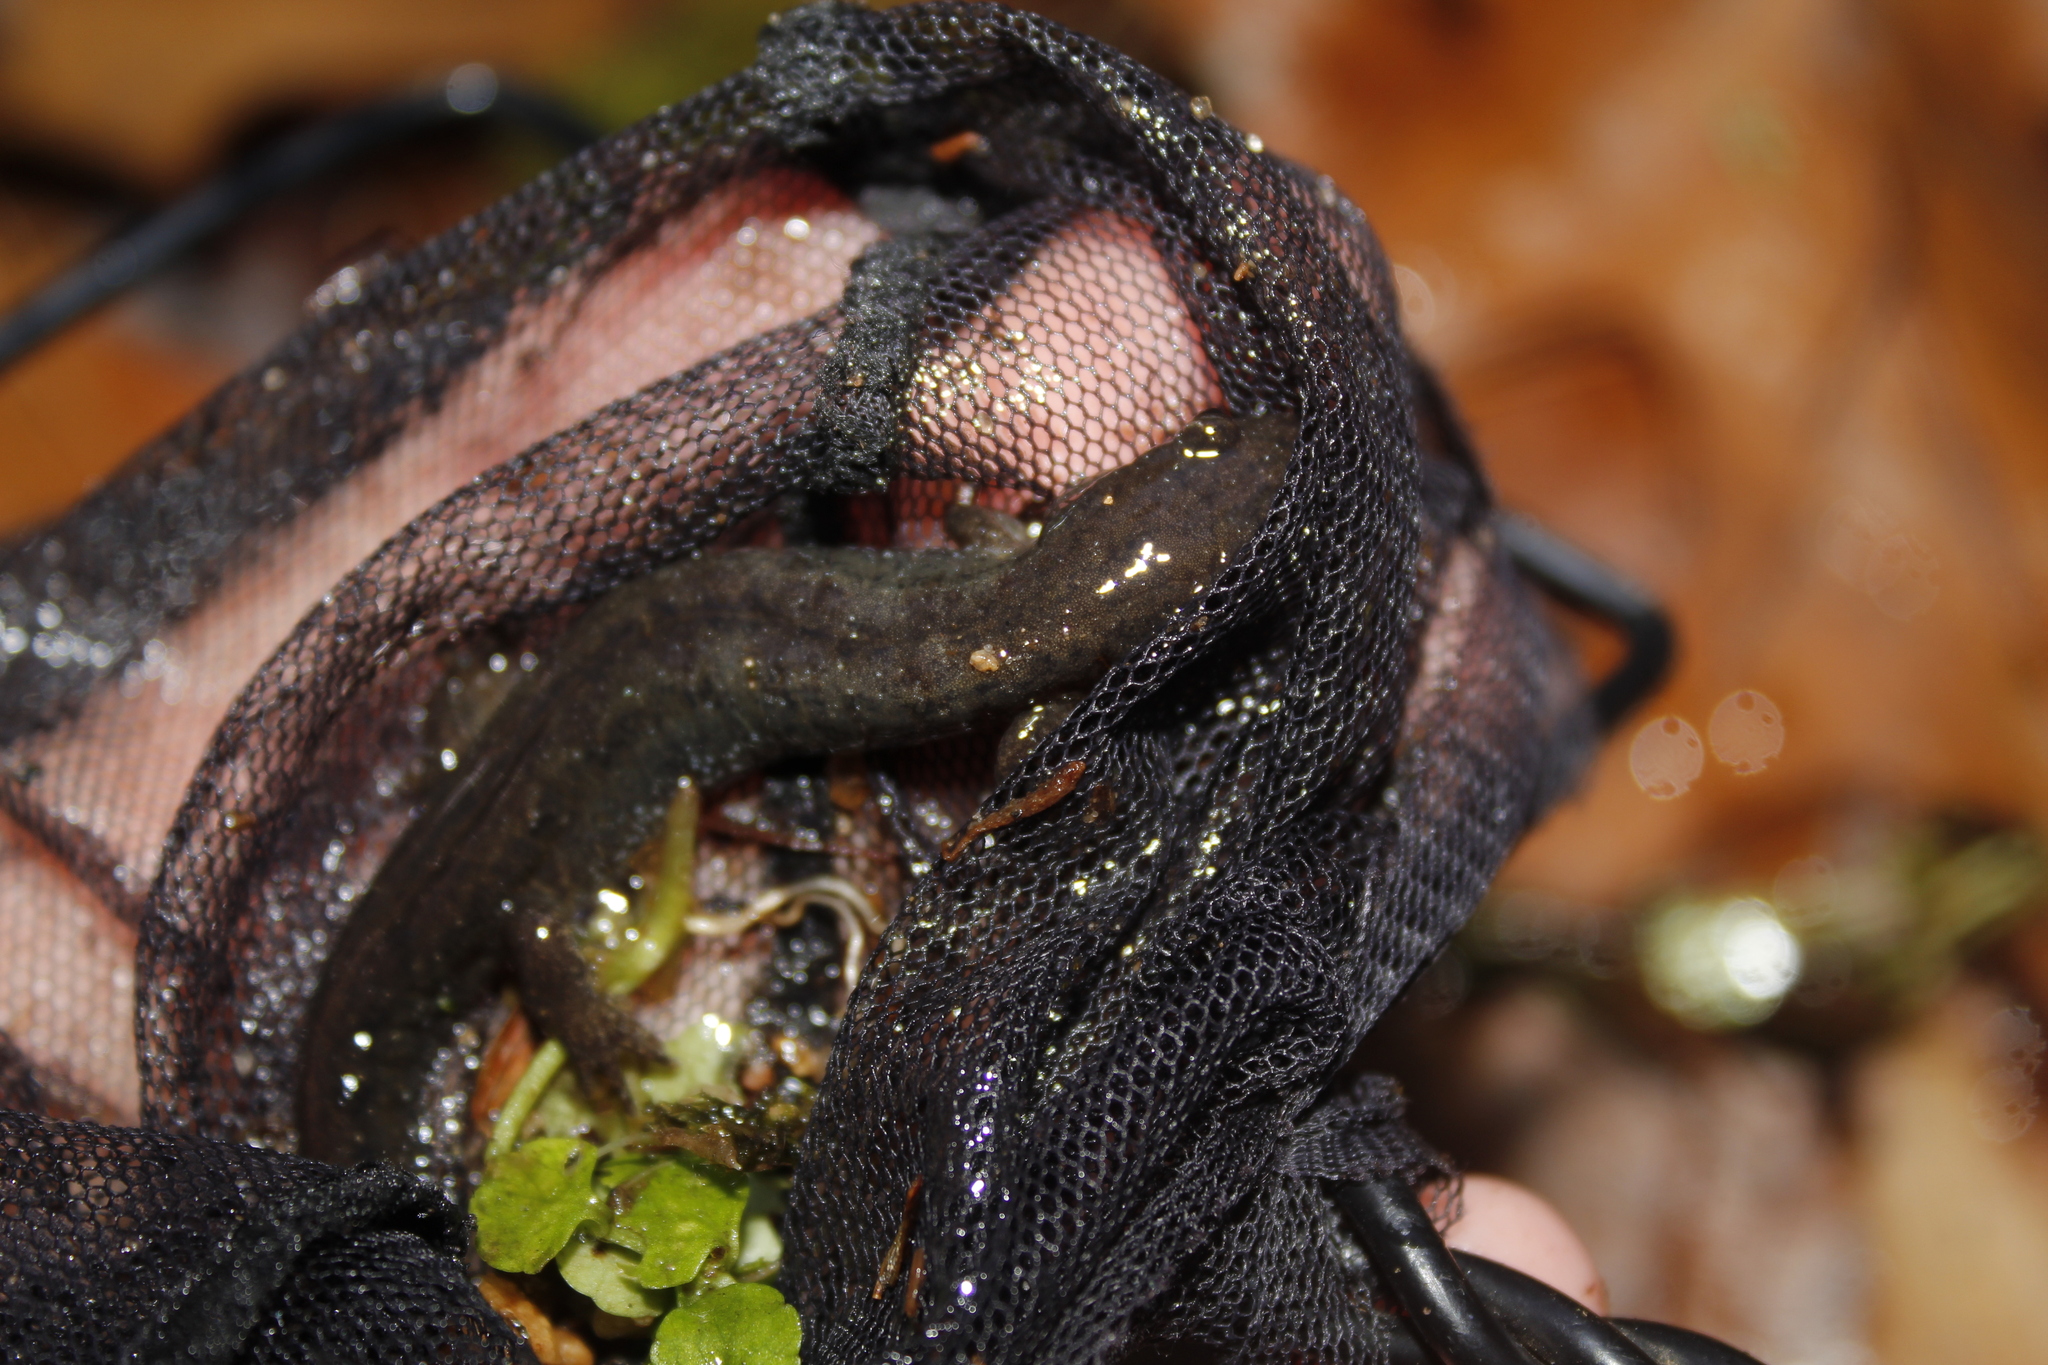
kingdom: Animalia
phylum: Chordata
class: Amphibia
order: Caudata
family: Plethodontidae
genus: Desmognathus
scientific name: Desmognathus fuscus
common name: Northern dusky salamander
